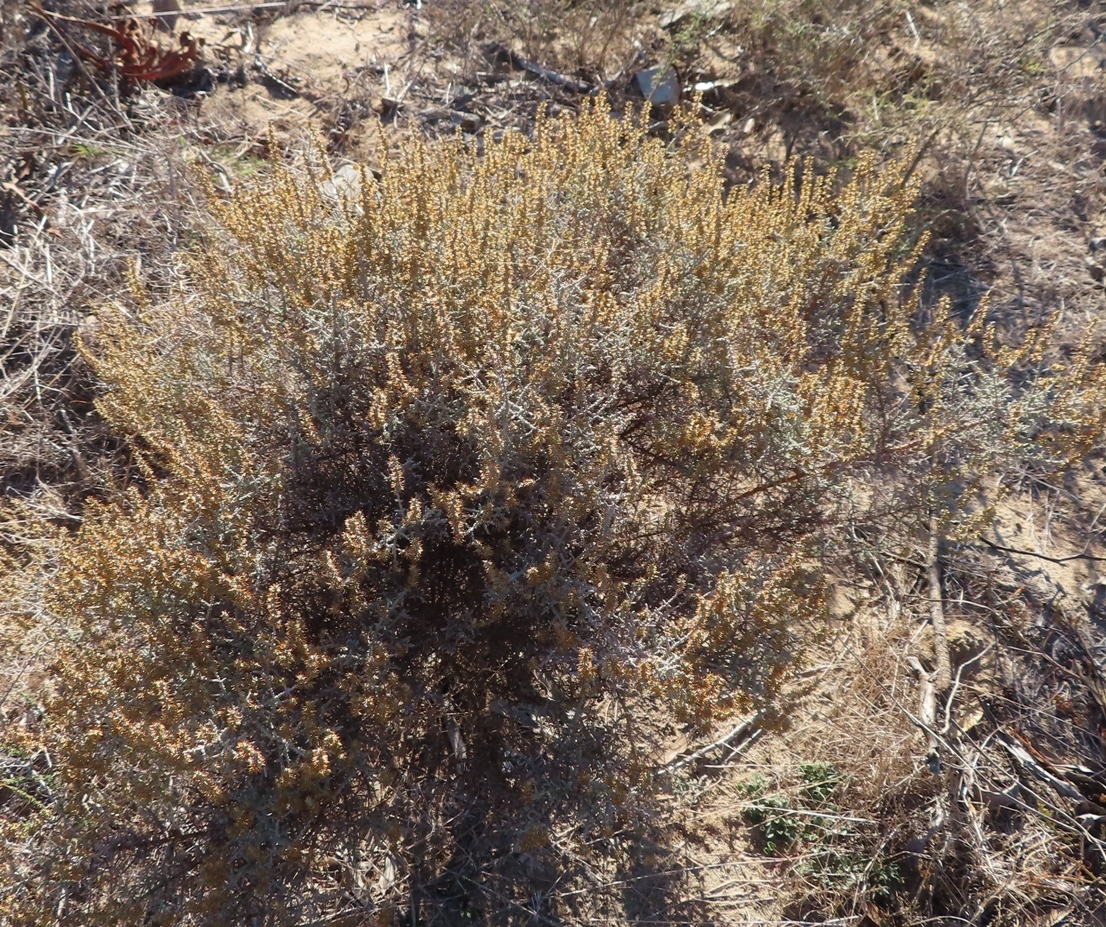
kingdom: Plantae
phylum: Tracheophyta
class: Magnoliopsida
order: Asterales
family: Asteraceae
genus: Seriphium
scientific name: Seriphium plumosum
